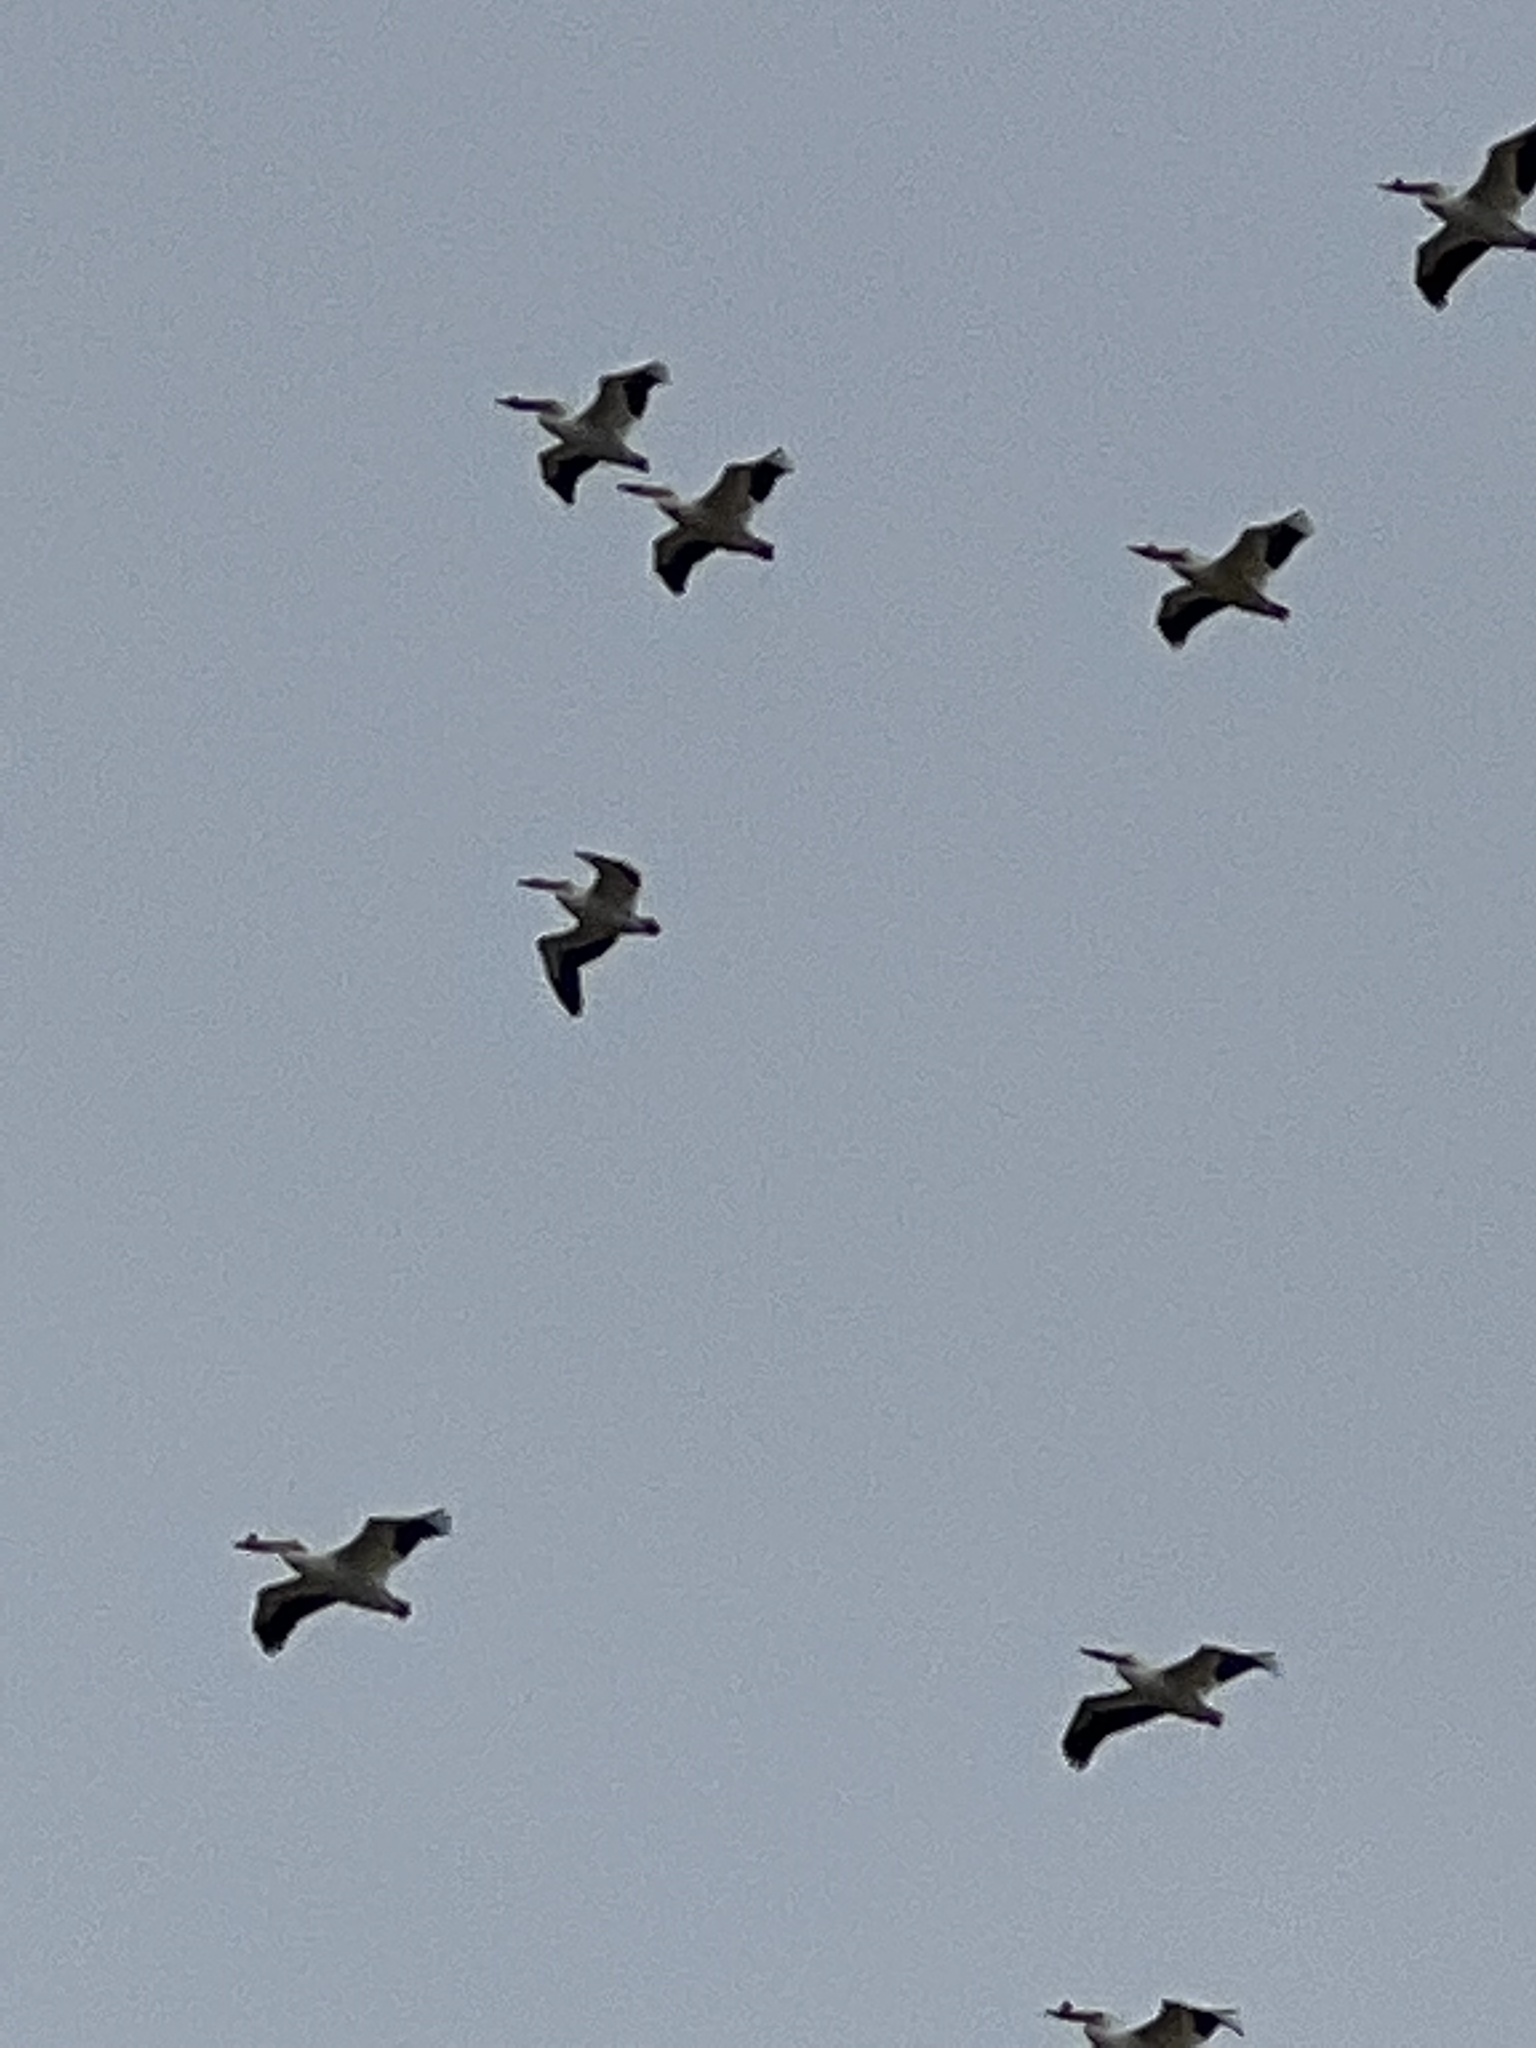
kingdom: Animalia
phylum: Chordata
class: Aves
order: Pelecaniformes
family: Pelecanidae
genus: Pelecanus
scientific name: Pelecanus erythrorhynchos
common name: American white pelican
